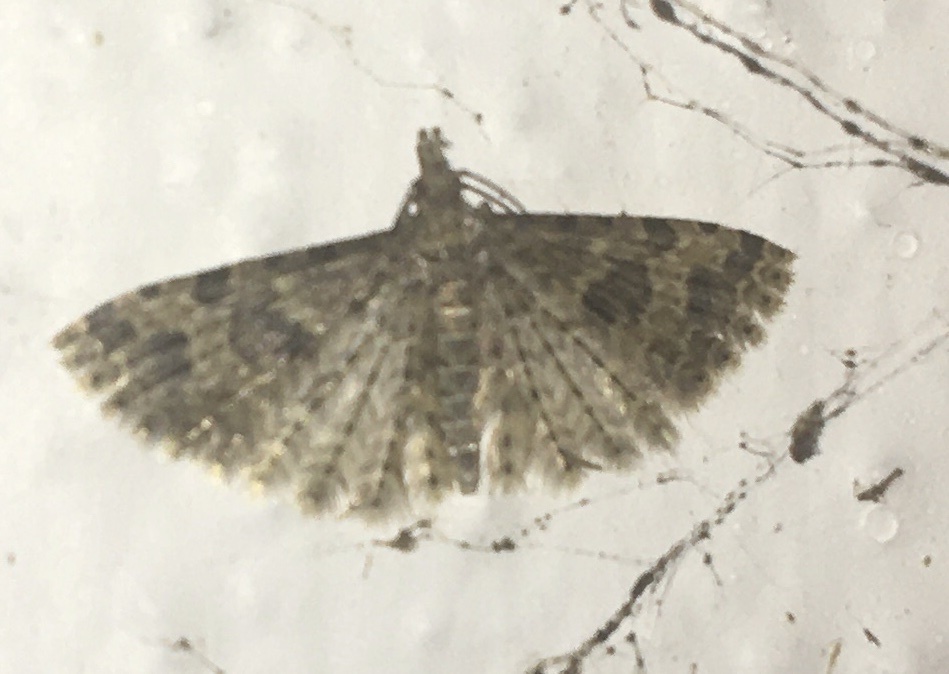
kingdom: Animalia
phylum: Arthropoda
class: Insecta
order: Lepidoptera
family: Alucitidae
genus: Alucita
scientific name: Alucita hexadactyla
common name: Twenty-plume moth
